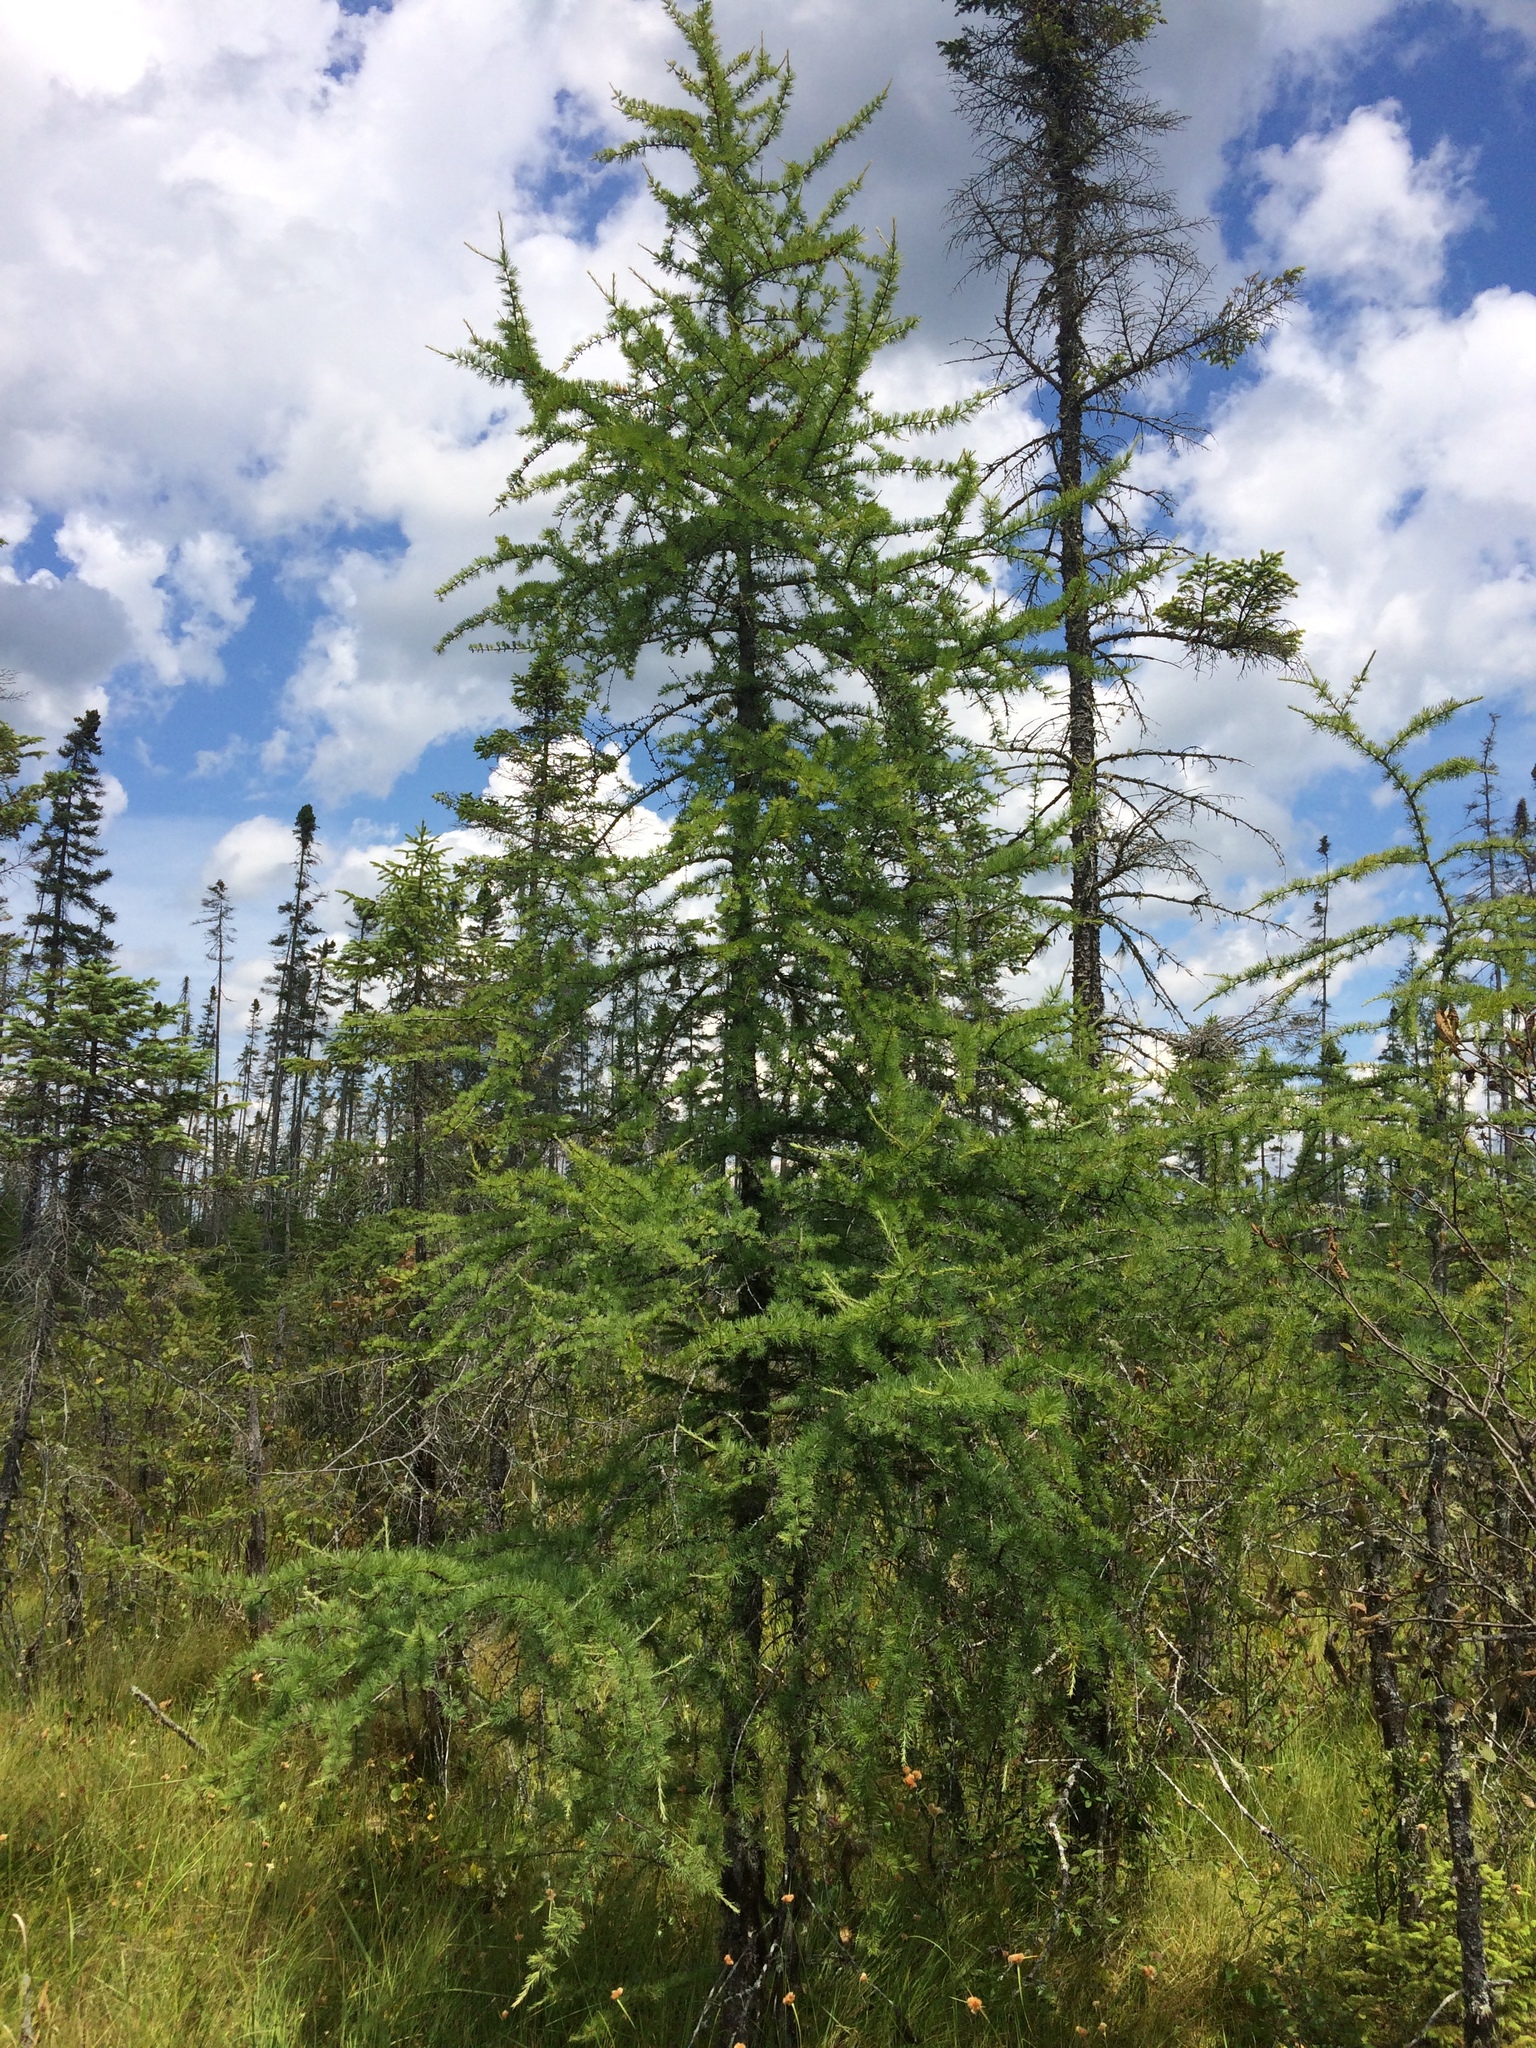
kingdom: Plantae
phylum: Tracheophyta
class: Pinopsida
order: Pinales
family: Pinaceae
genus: Larix
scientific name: Larix laricina
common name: American larch
